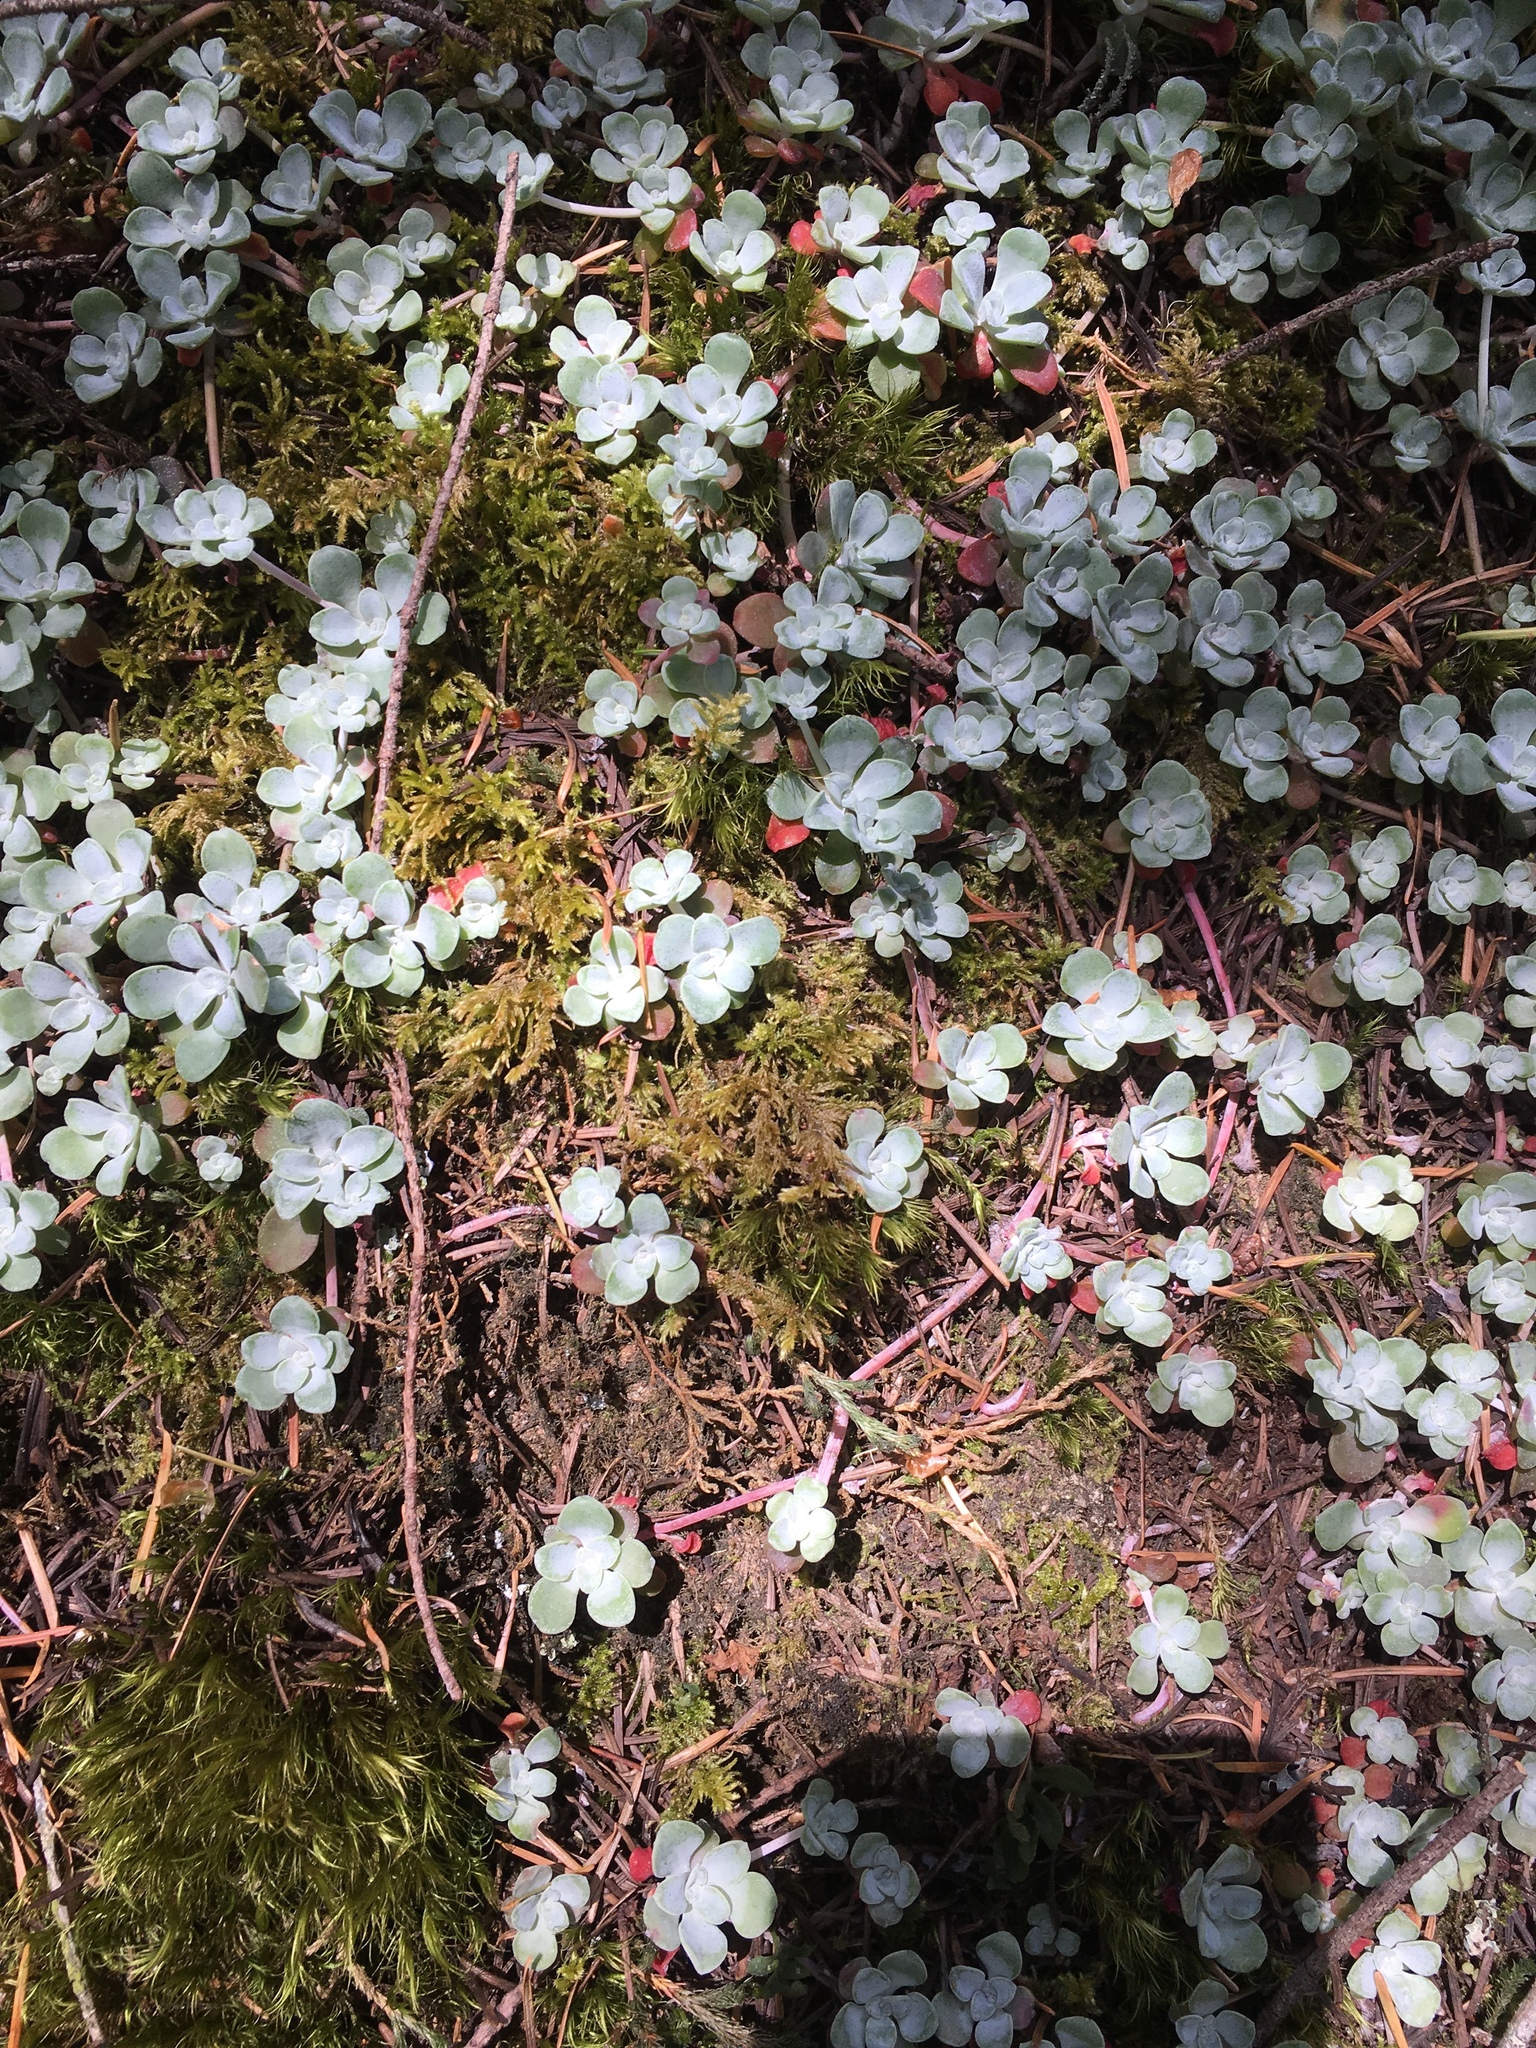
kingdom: Plantae
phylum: Tracheophyta
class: Magnoliopsida
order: Saxifragales
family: Crassulaceae
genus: Sedum
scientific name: Sedum spathulifolium
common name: Colorado stonecrop
